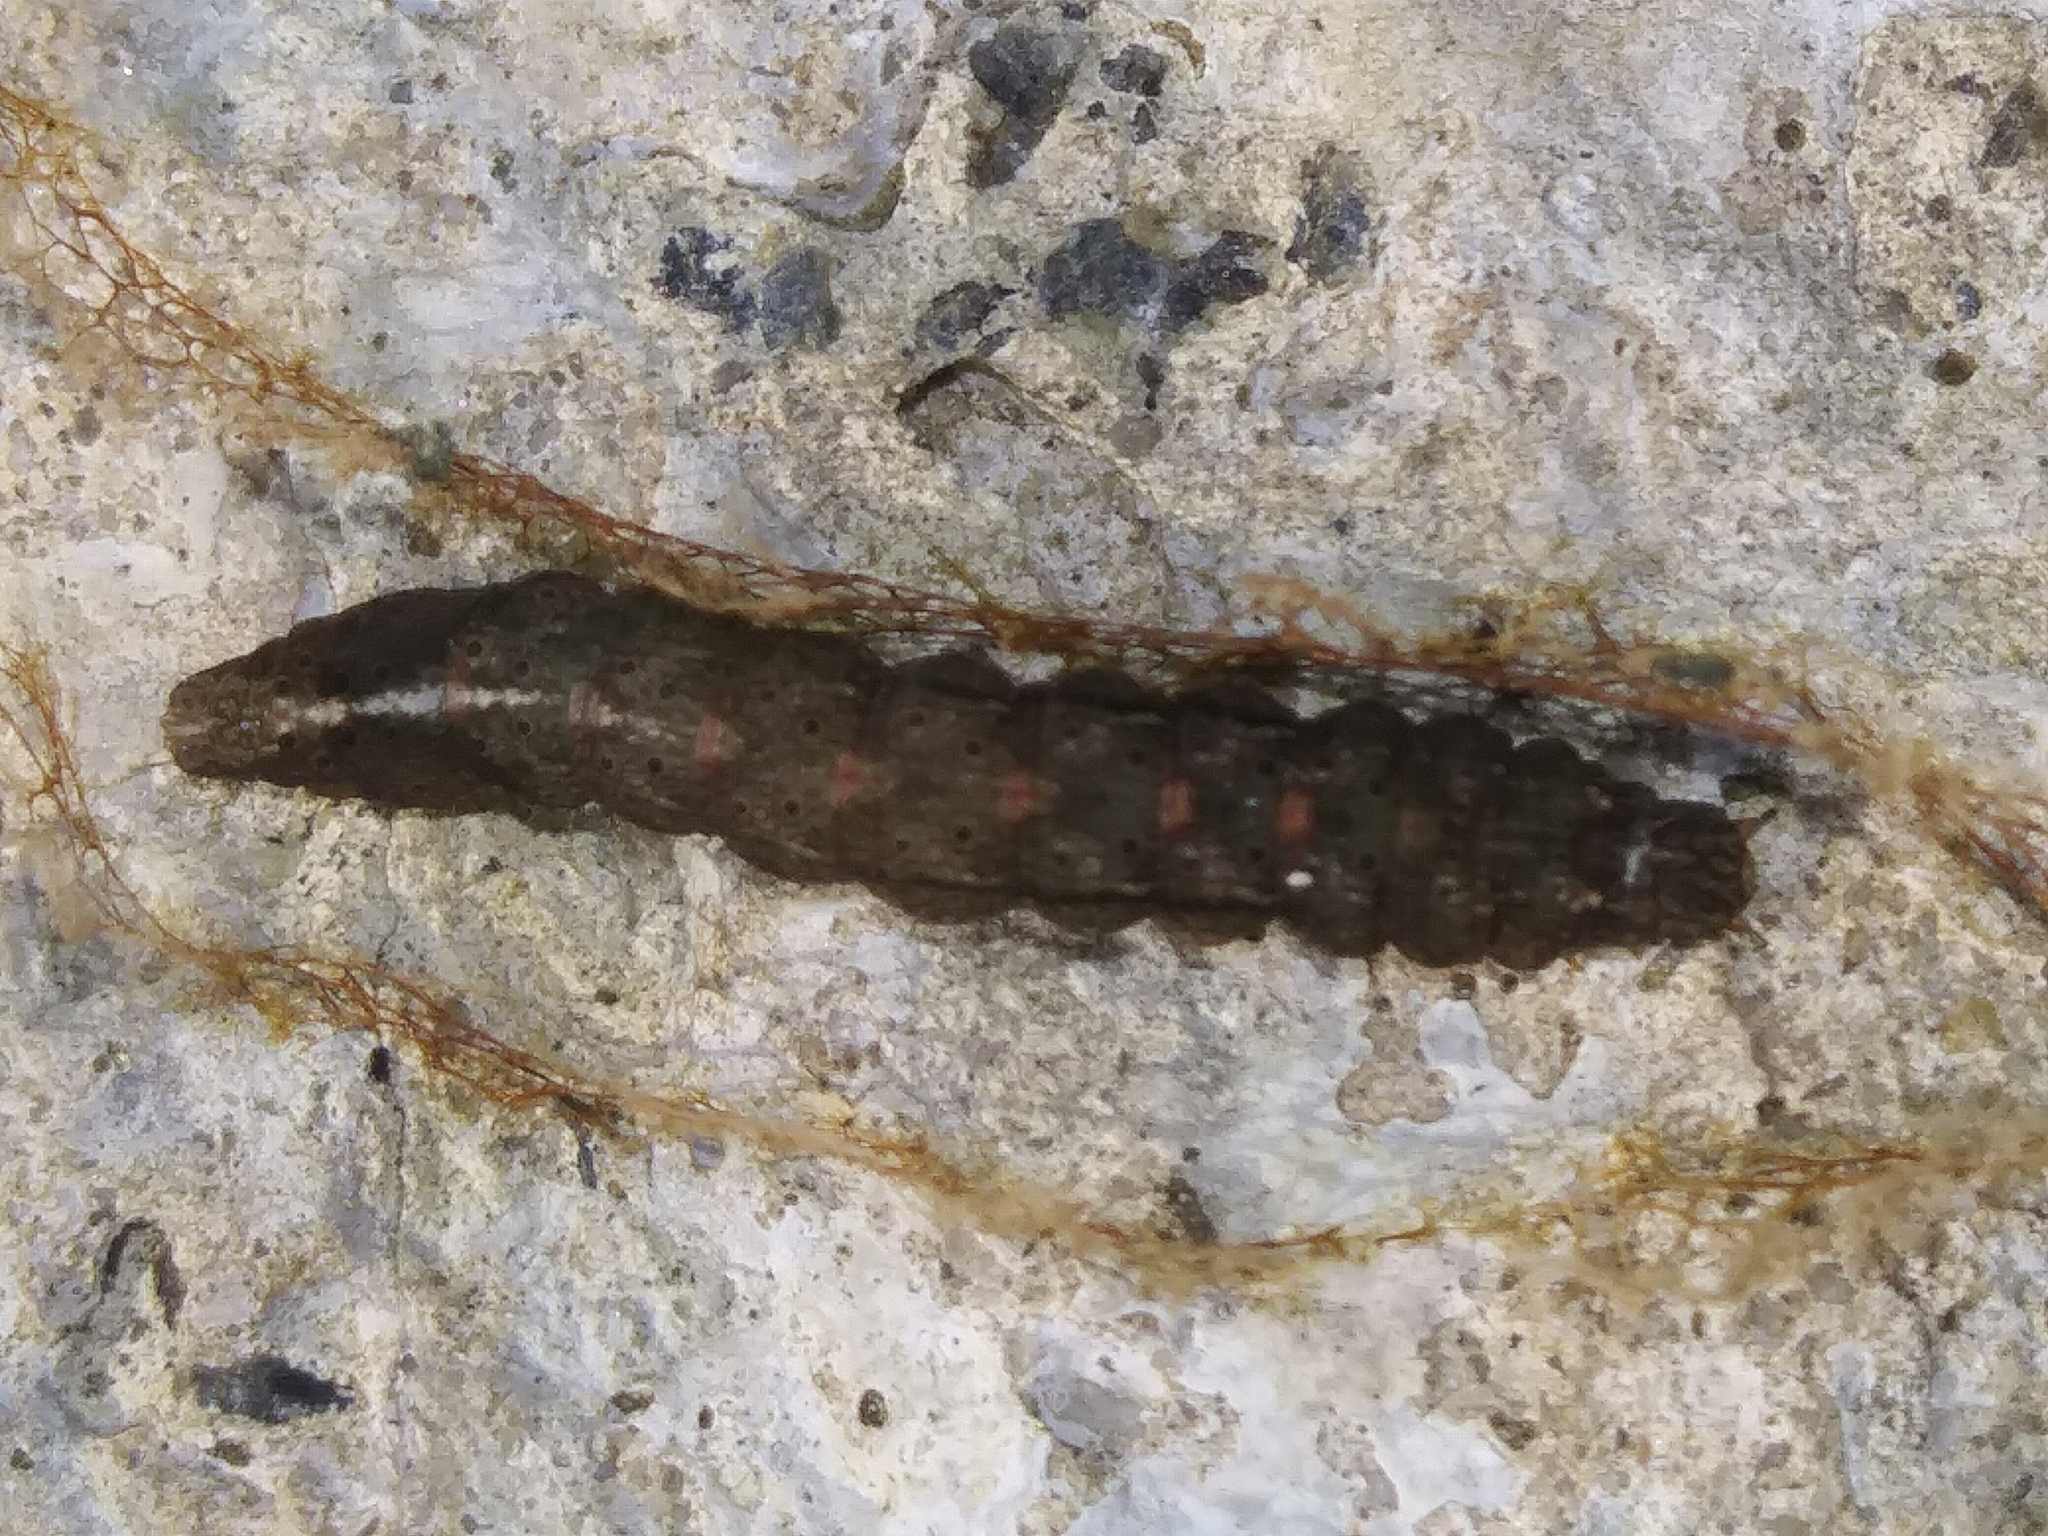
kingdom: Animalia
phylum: Arthropoda
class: Insecta
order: Lepidoptera
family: Noctuidae
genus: Sympistis
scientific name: Sympistis chionanthi
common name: Fringe-tree sallow
